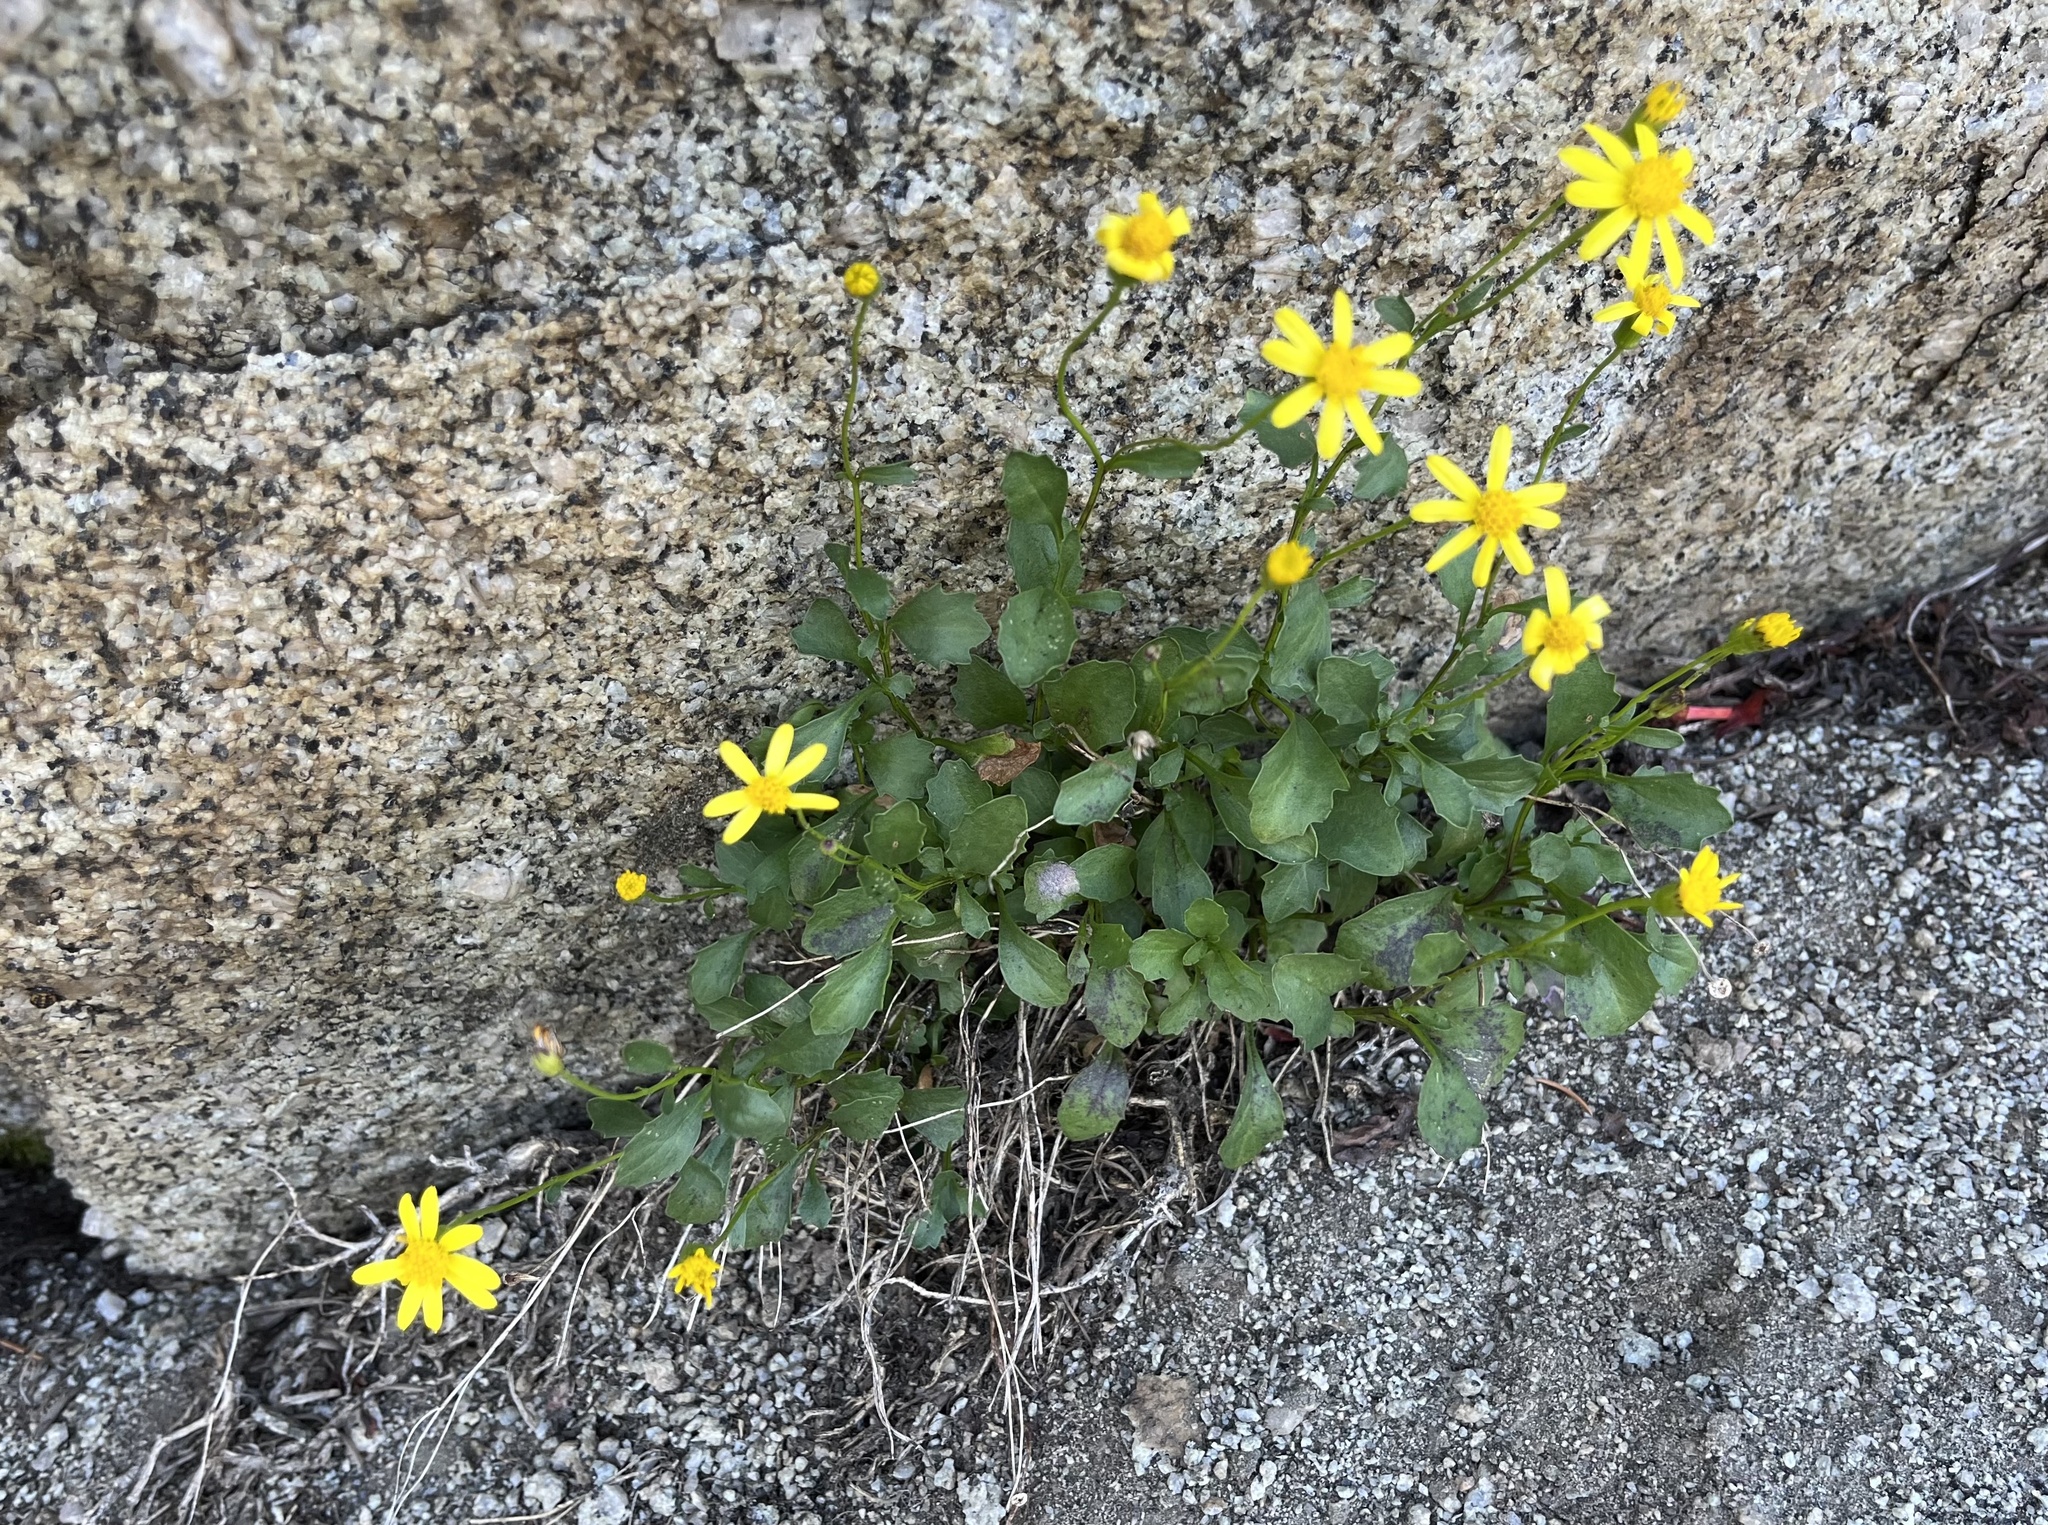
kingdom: Plantae
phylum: Tracheophyta
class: Magnoliopsida
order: Asterales
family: Asteraceae
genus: Senecio
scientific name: Senecio fremontii
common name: Fremont's groundsel
